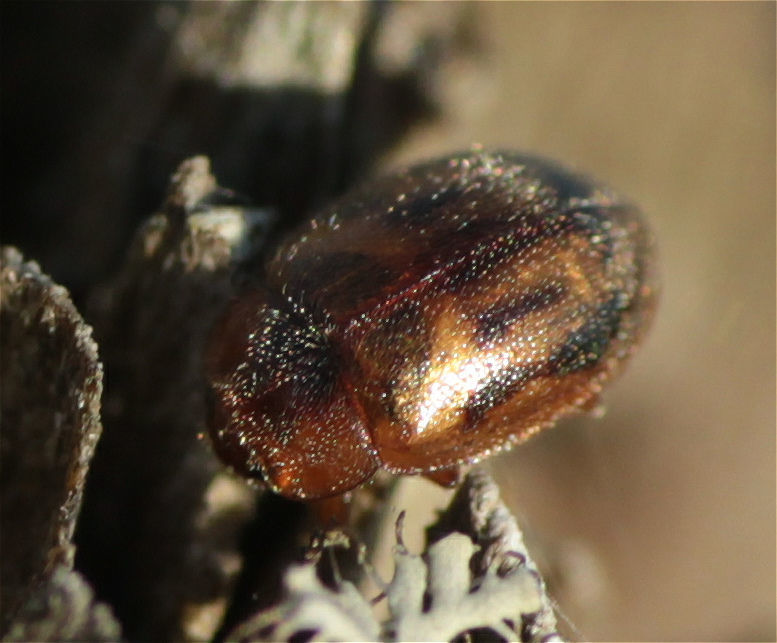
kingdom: Animalia
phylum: Arthropoda
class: Insecta
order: Coleoptera
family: Coccinellidae
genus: Rhyzobius
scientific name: Rhyzobius chrysomeloides
